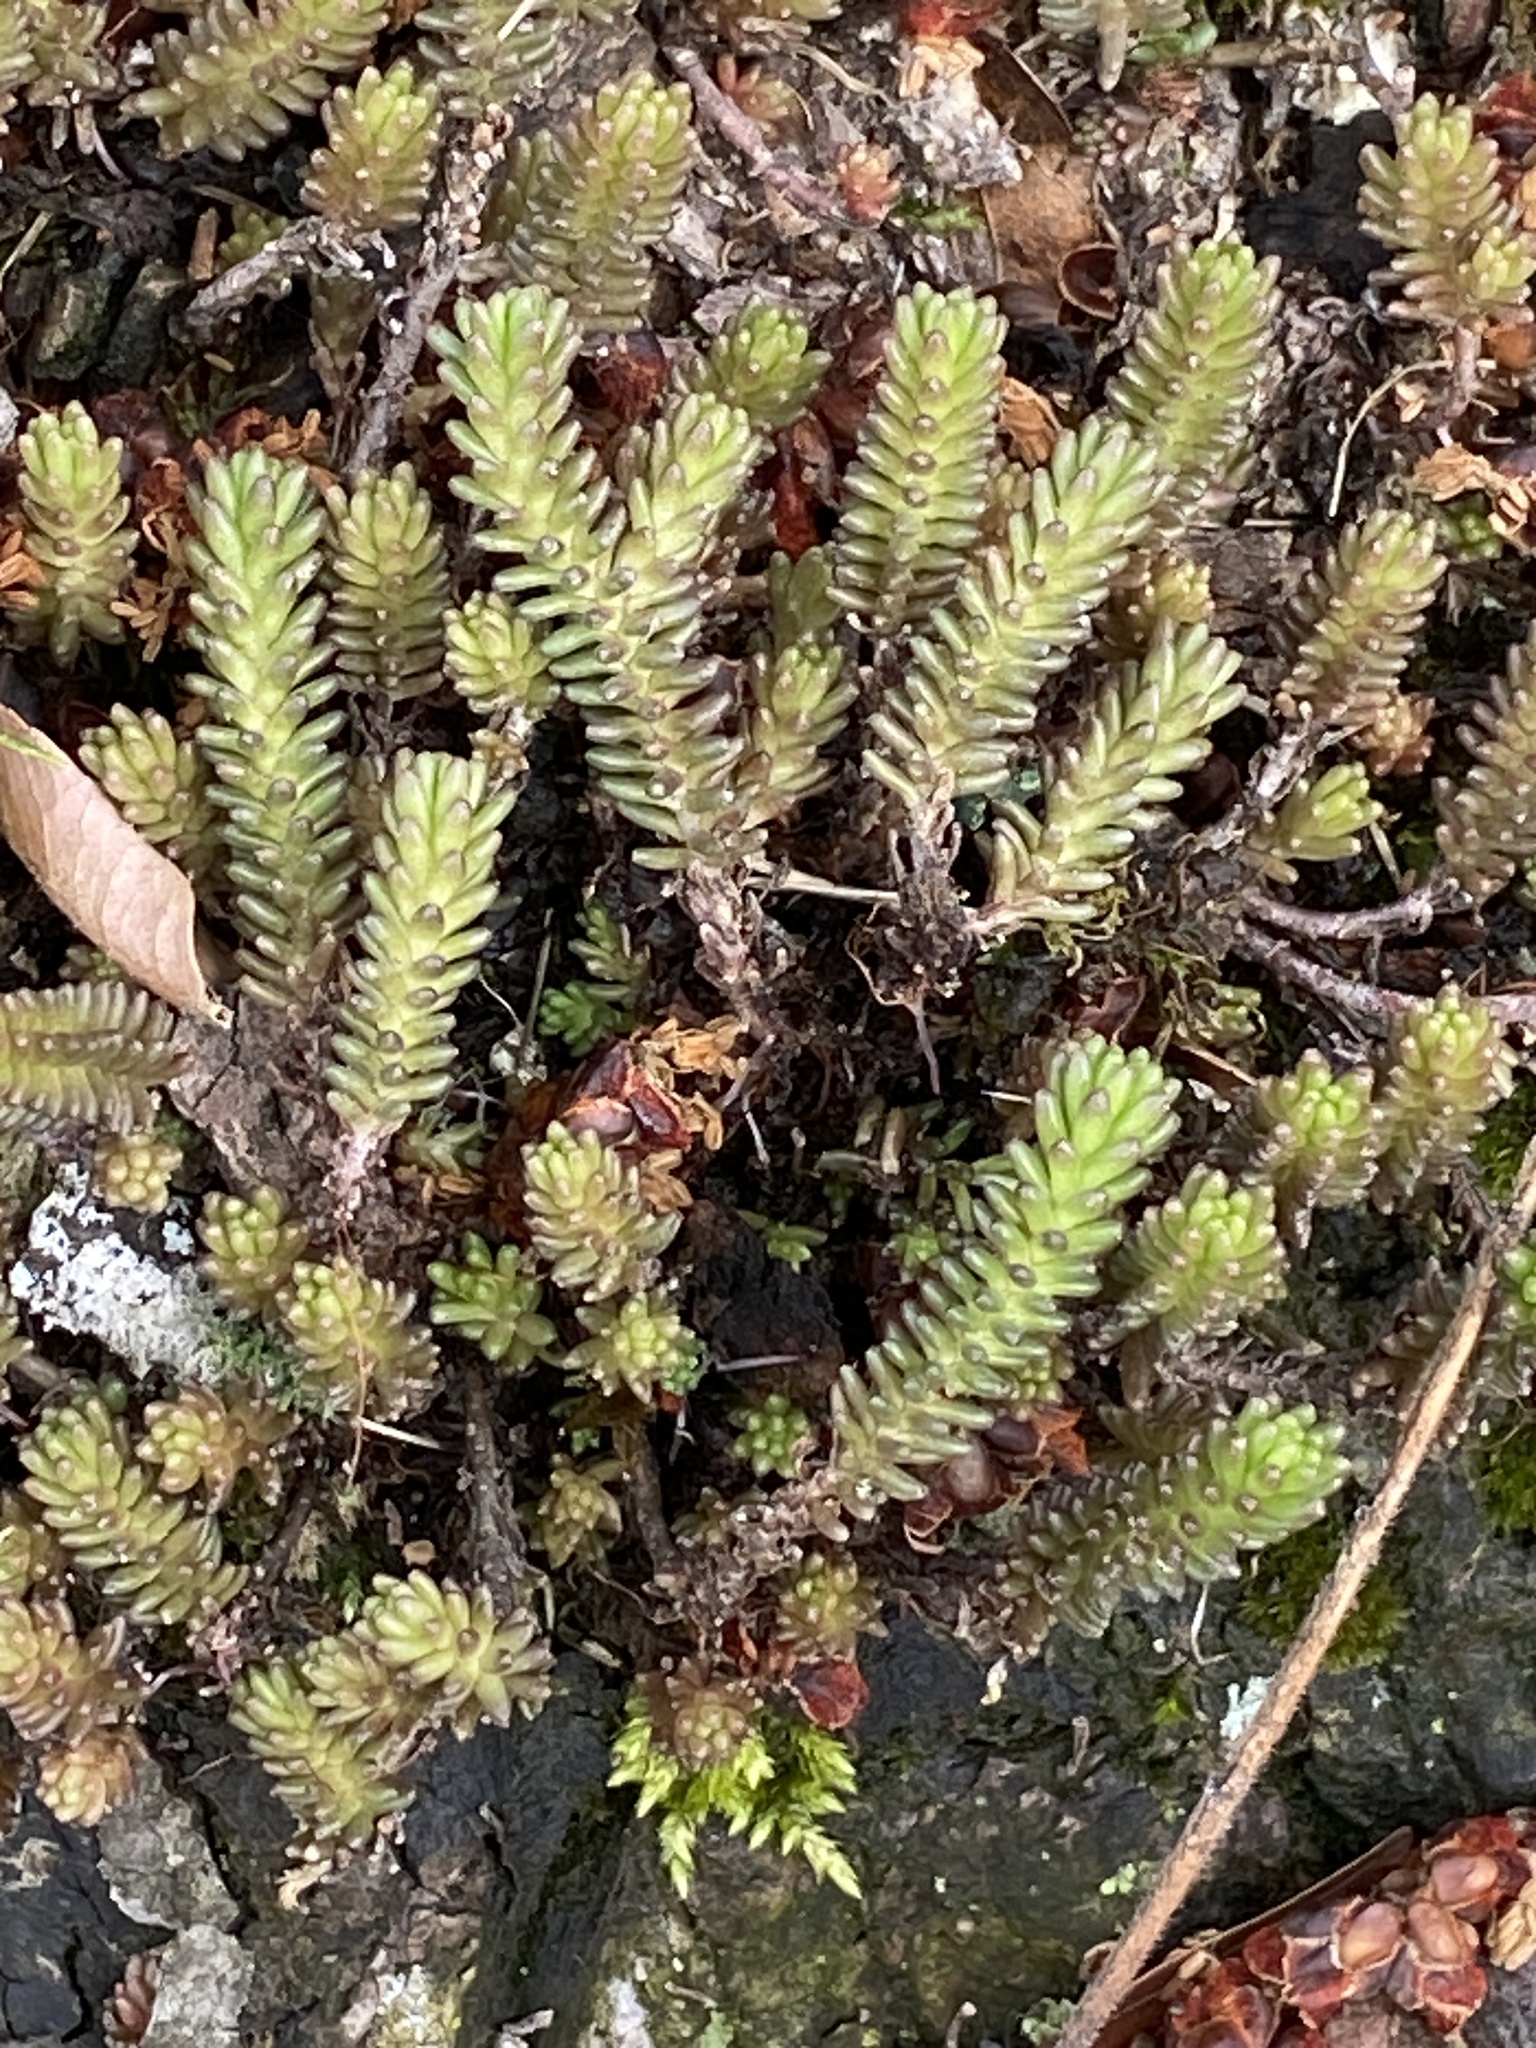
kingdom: Plantae
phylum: Tracheophyta
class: Magnoliopsida
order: Saxifragales
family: Crassulaceae
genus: Sedum
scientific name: Sedum sexangulare
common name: Tasteless stonecrop
